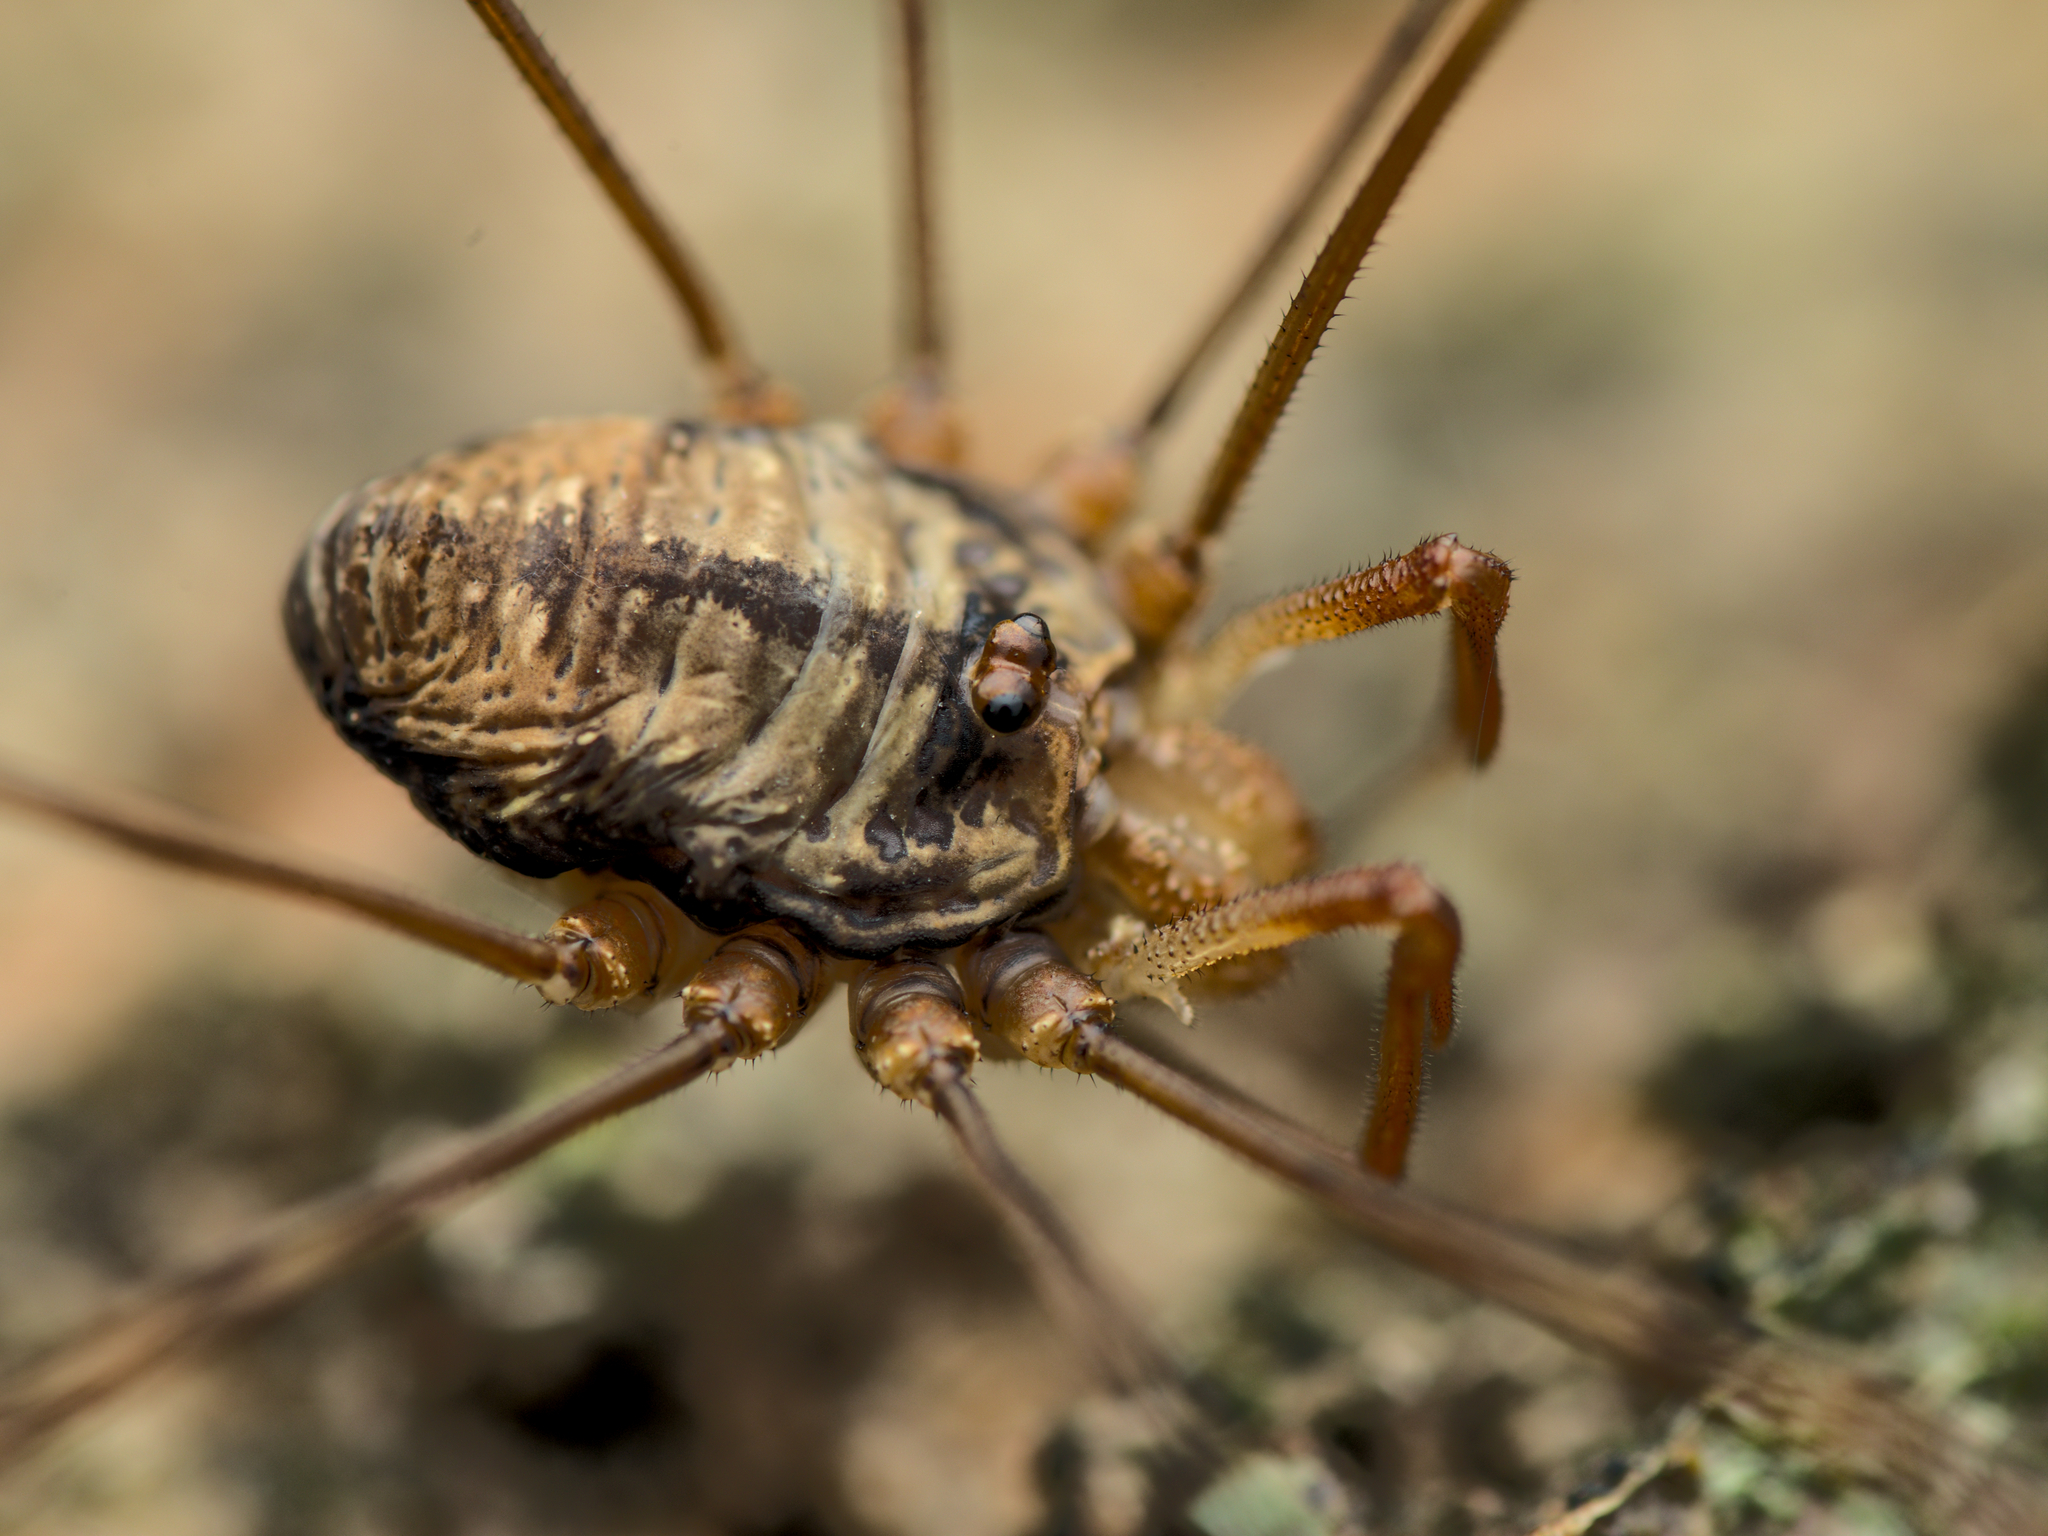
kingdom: Animalia
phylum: Arthropoda
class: Arachnida
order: Opiliones
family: Phalangiidae
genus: Dicranopalpus
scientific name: Dicranopalpus ramosus
